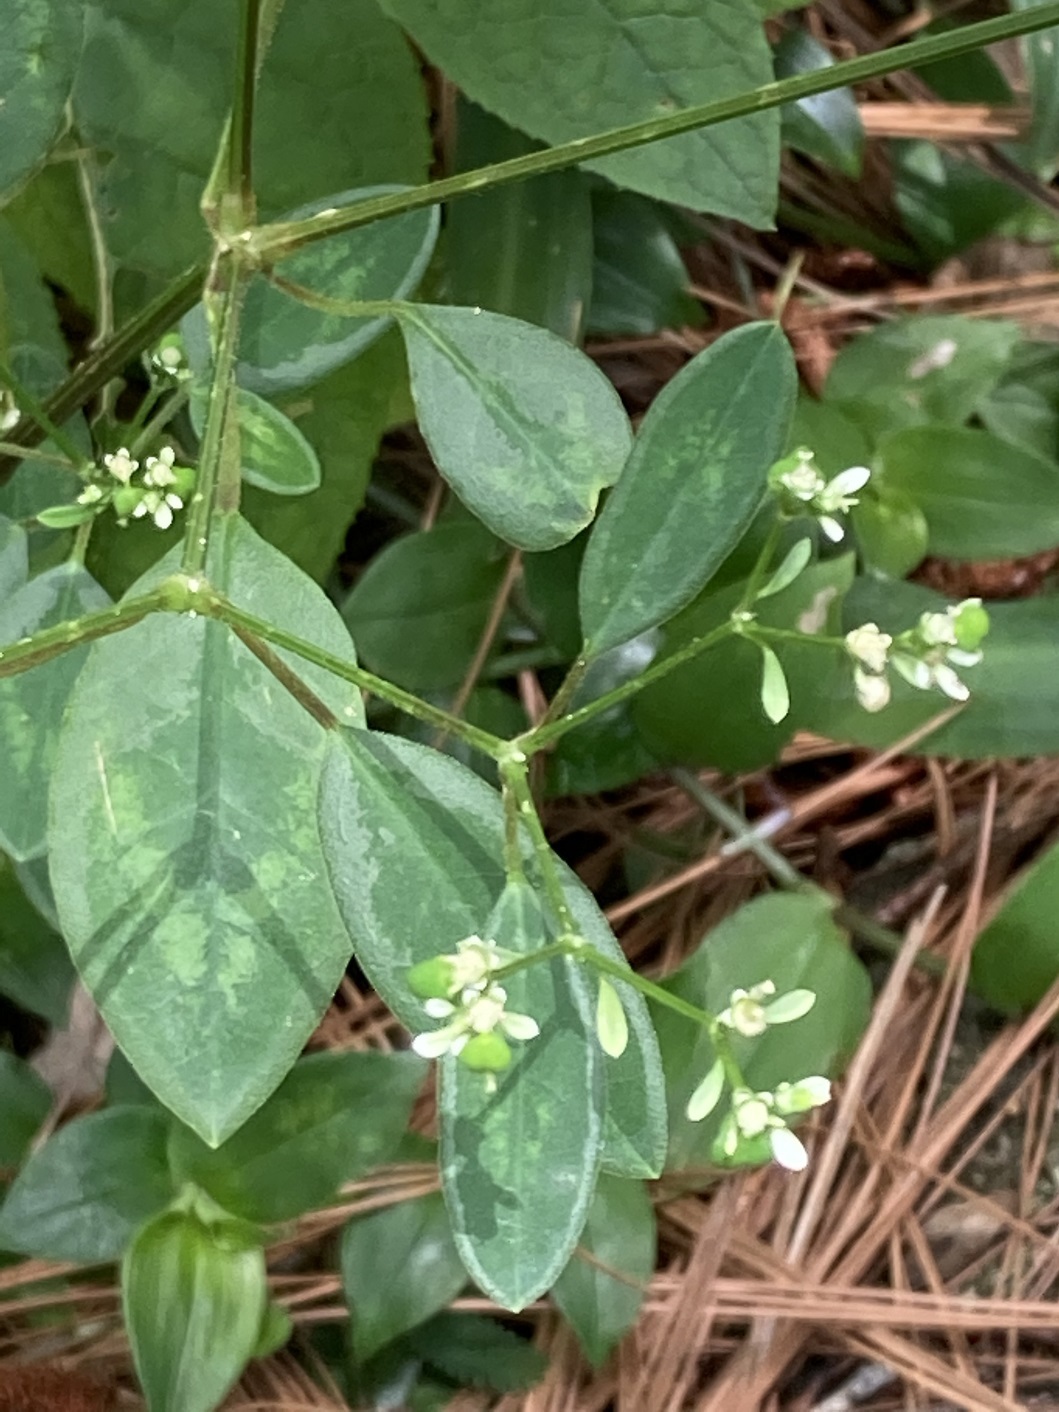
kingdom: Plantae
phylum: Tracheophyta
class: Magnoliopsida
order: Malpighiales
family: Euphorbiaceae
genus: Euphorbia
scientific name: Euphorbia graminea
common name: Grassleaf spurge
